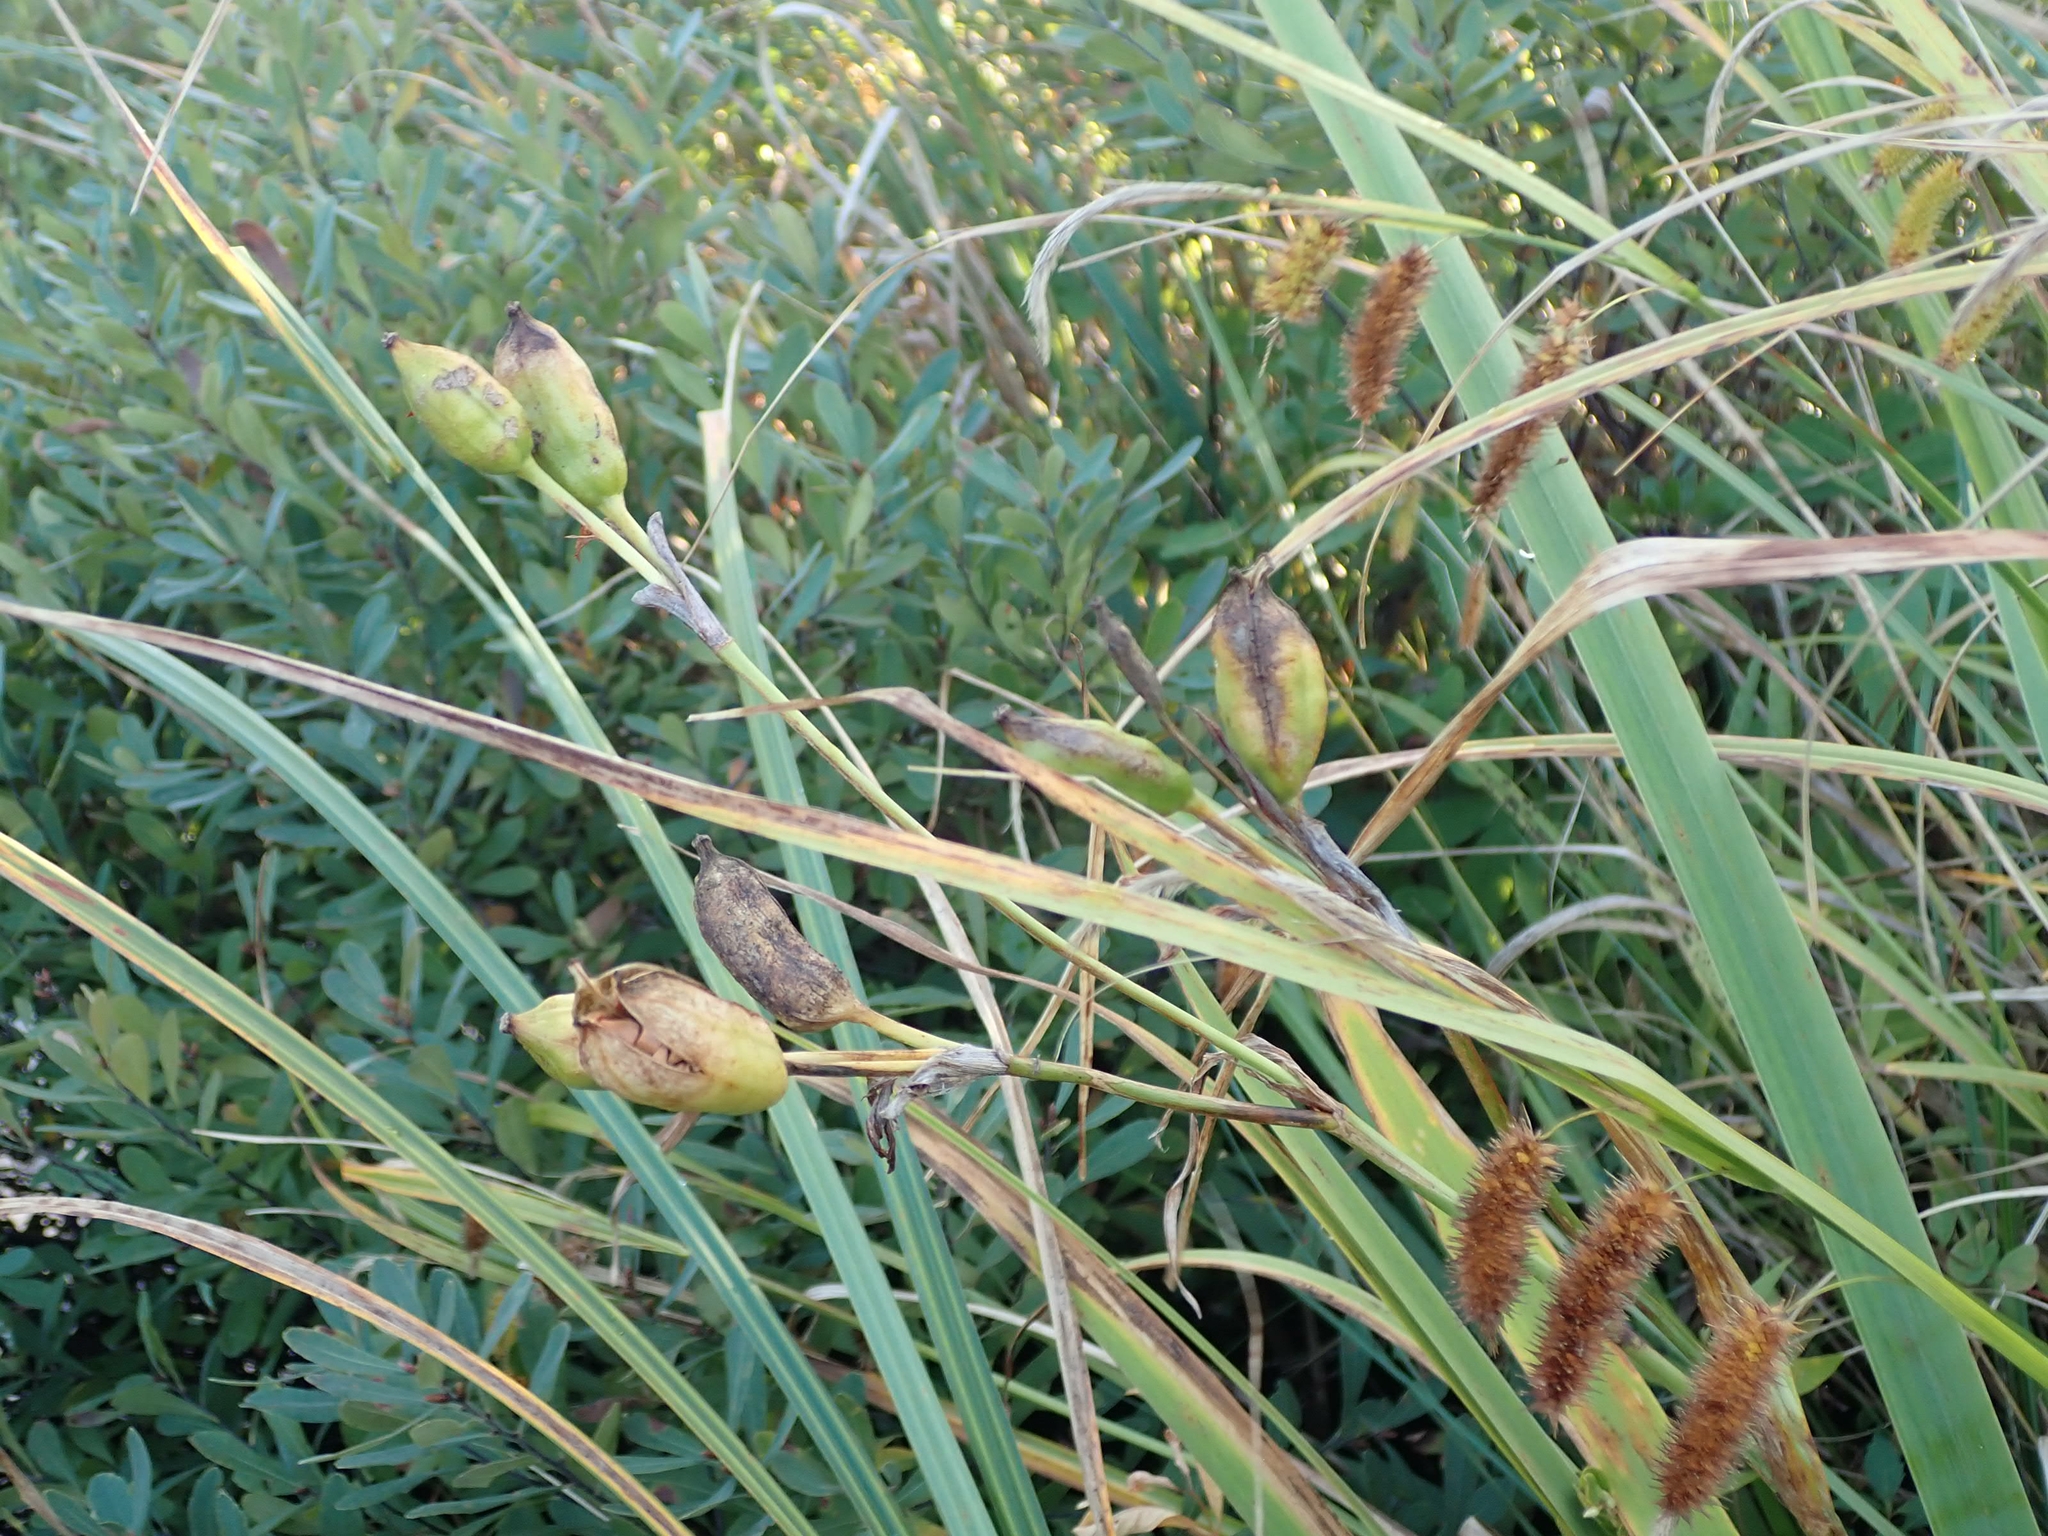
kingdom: Plantae
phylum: Tracheophyta
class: Liliopsida
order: Asparagales
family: Iridaceae
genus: Iris
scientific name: Iris versicolor
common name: Purple iris
